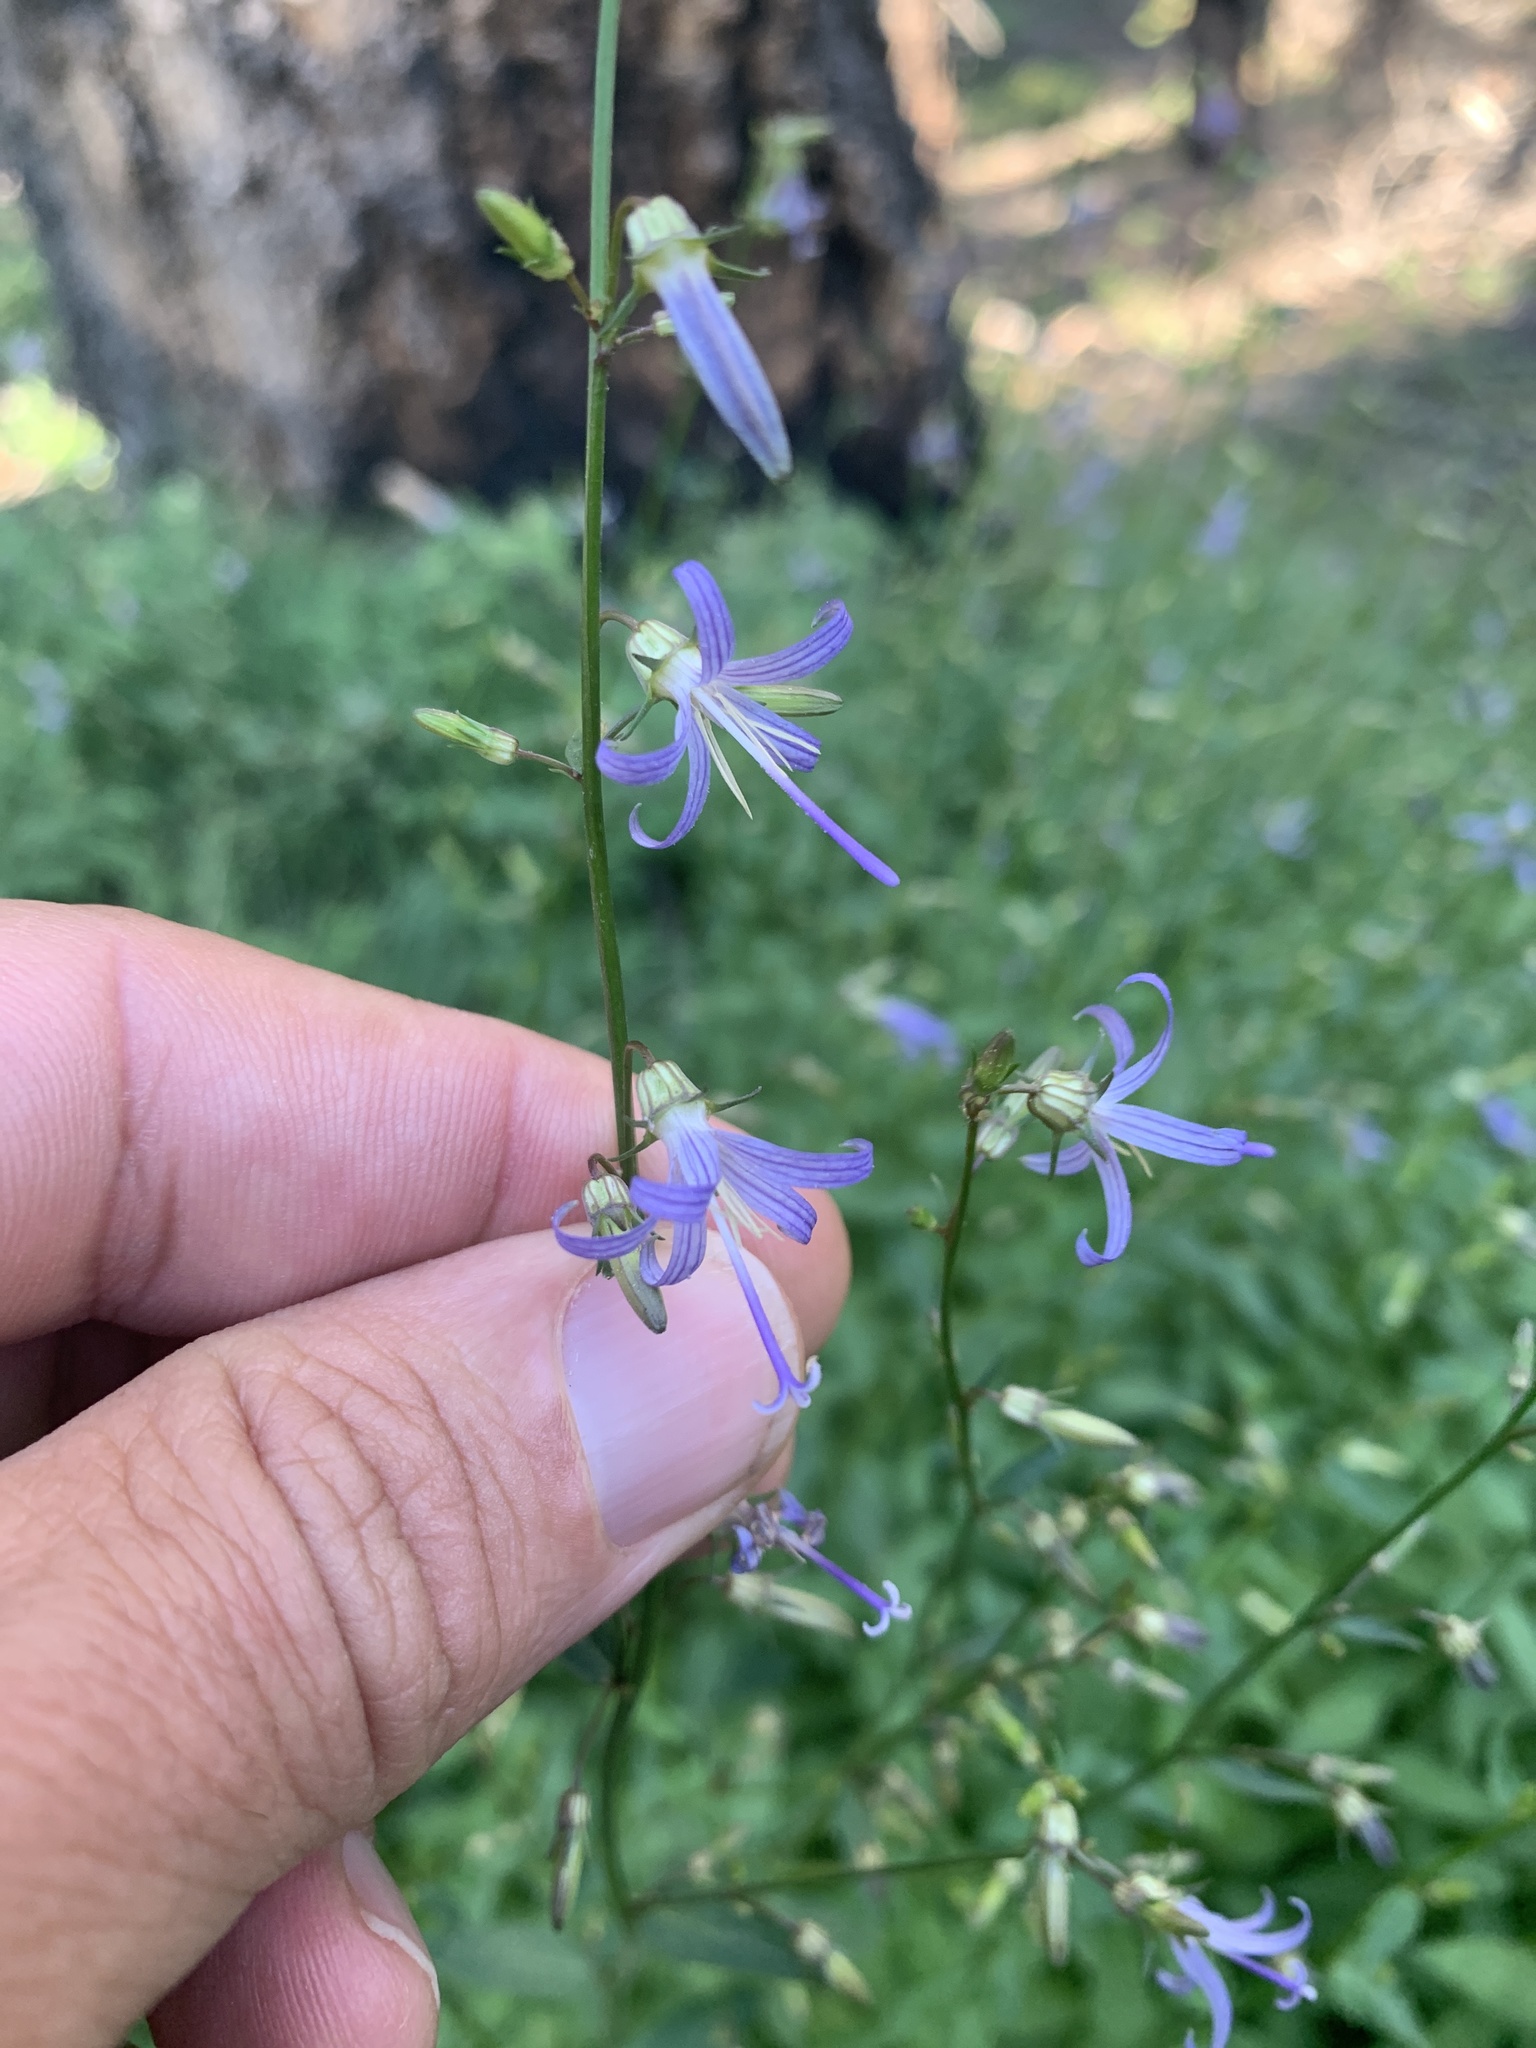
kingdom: Plantae
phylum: Tracheophyta
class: Magnoliopsida
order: Asterales
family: Campanulaceae
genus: Smithiastrum
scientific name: Smithiastrum prenanthoides
